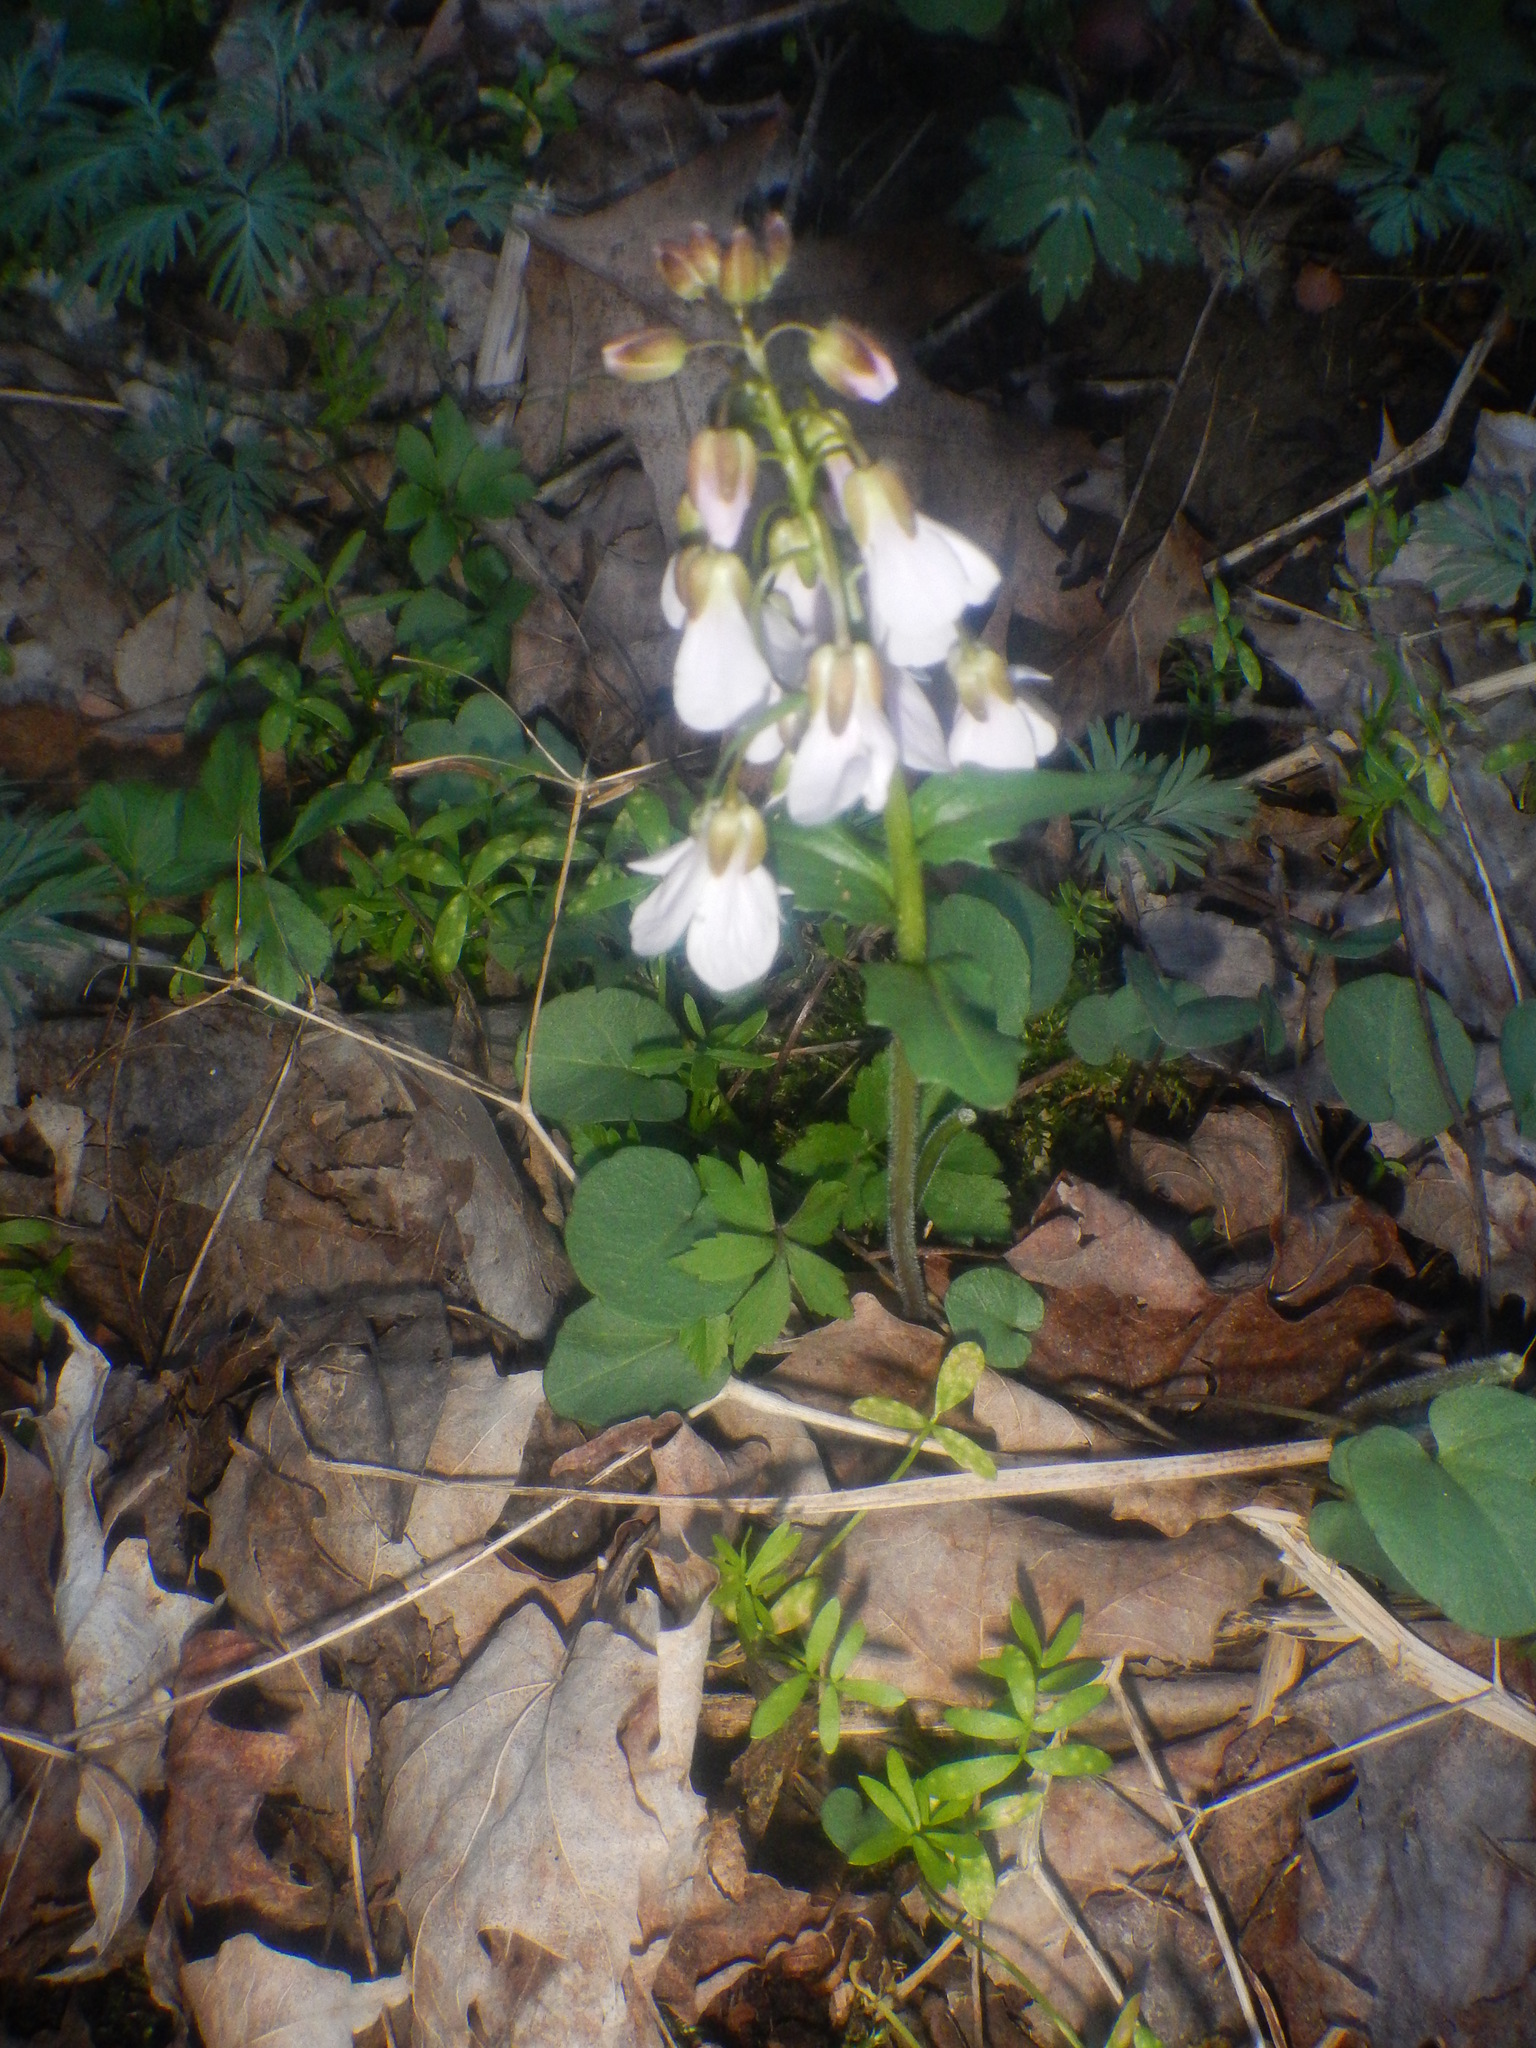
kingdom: Plantae
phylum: Tracheophyta
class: Magnoliopsida
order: Brassicales
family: Brassicaceae
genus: Cardamine
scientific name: Cardamine douglassii
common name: Purple cress
